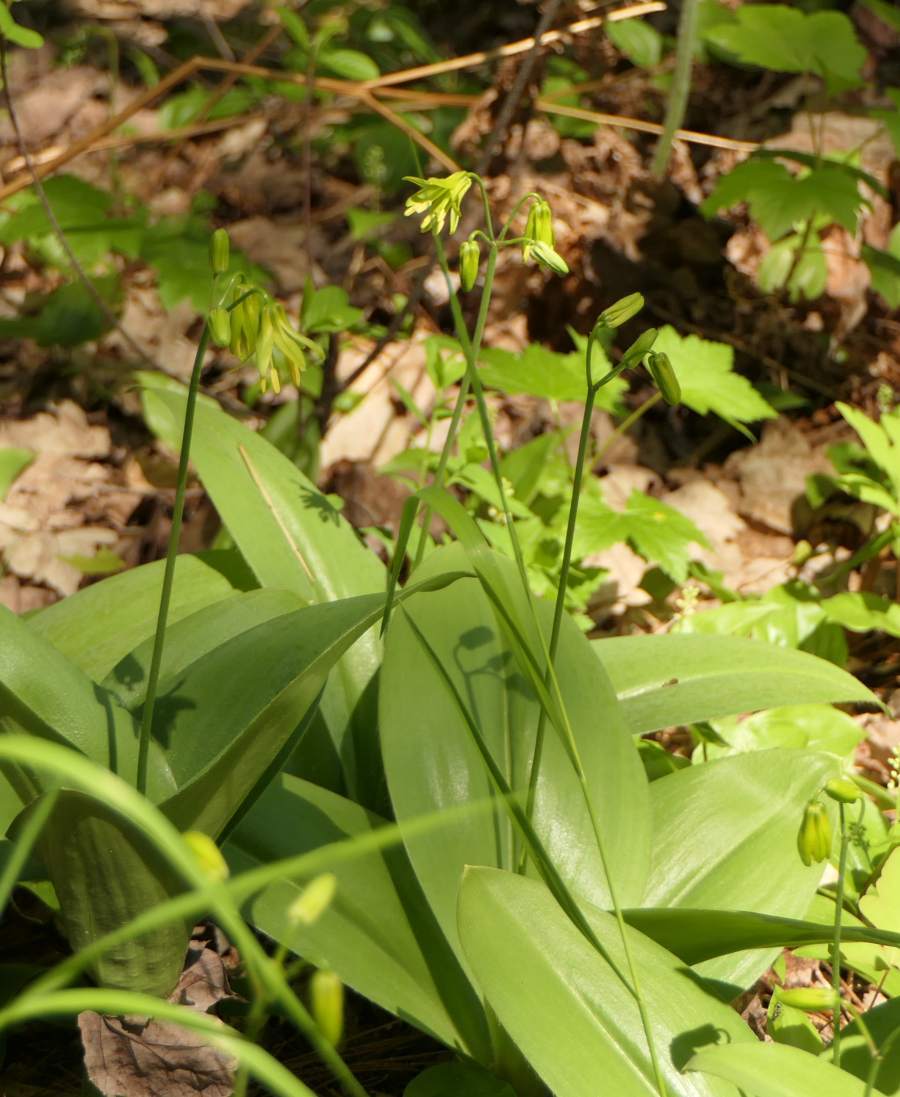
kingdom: Plantae
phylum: Tracheophyta
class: Liliopsida
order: Liliales
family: Liliaceae
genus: Clintonia
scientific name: Clintonia borealis
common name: Yellow clintonia
